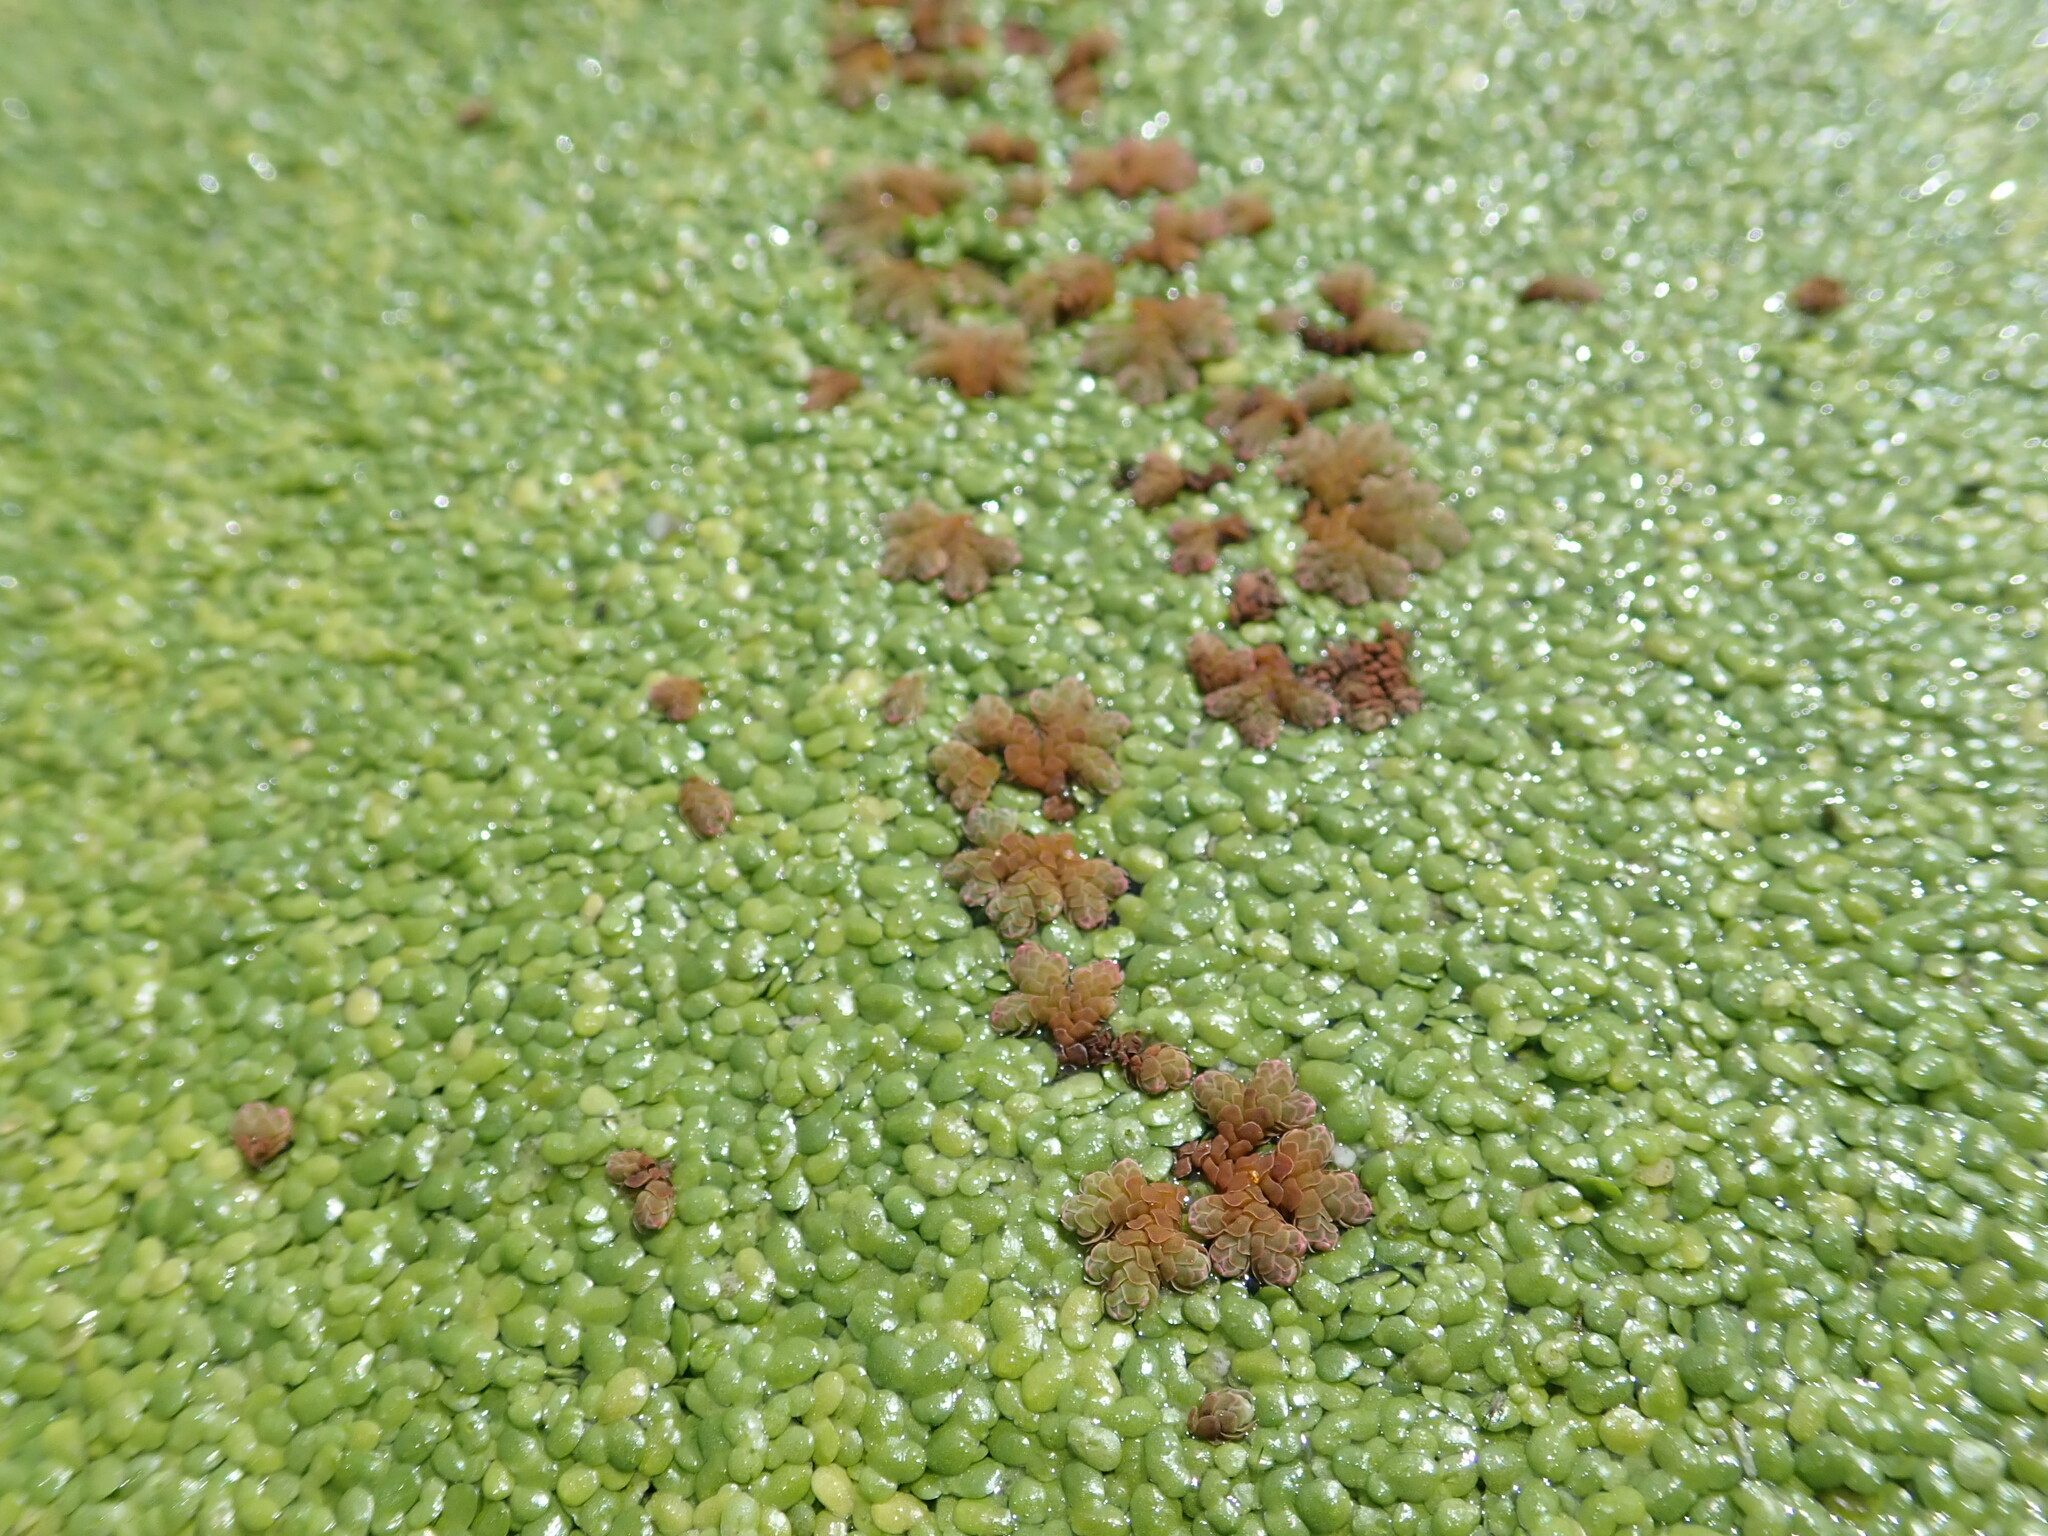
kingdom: Plantae
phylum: Tracheophyta
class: Polypodiopsida
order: Salviniales
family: Salviniaceae
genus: Azolla
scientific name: Azolla rubra
